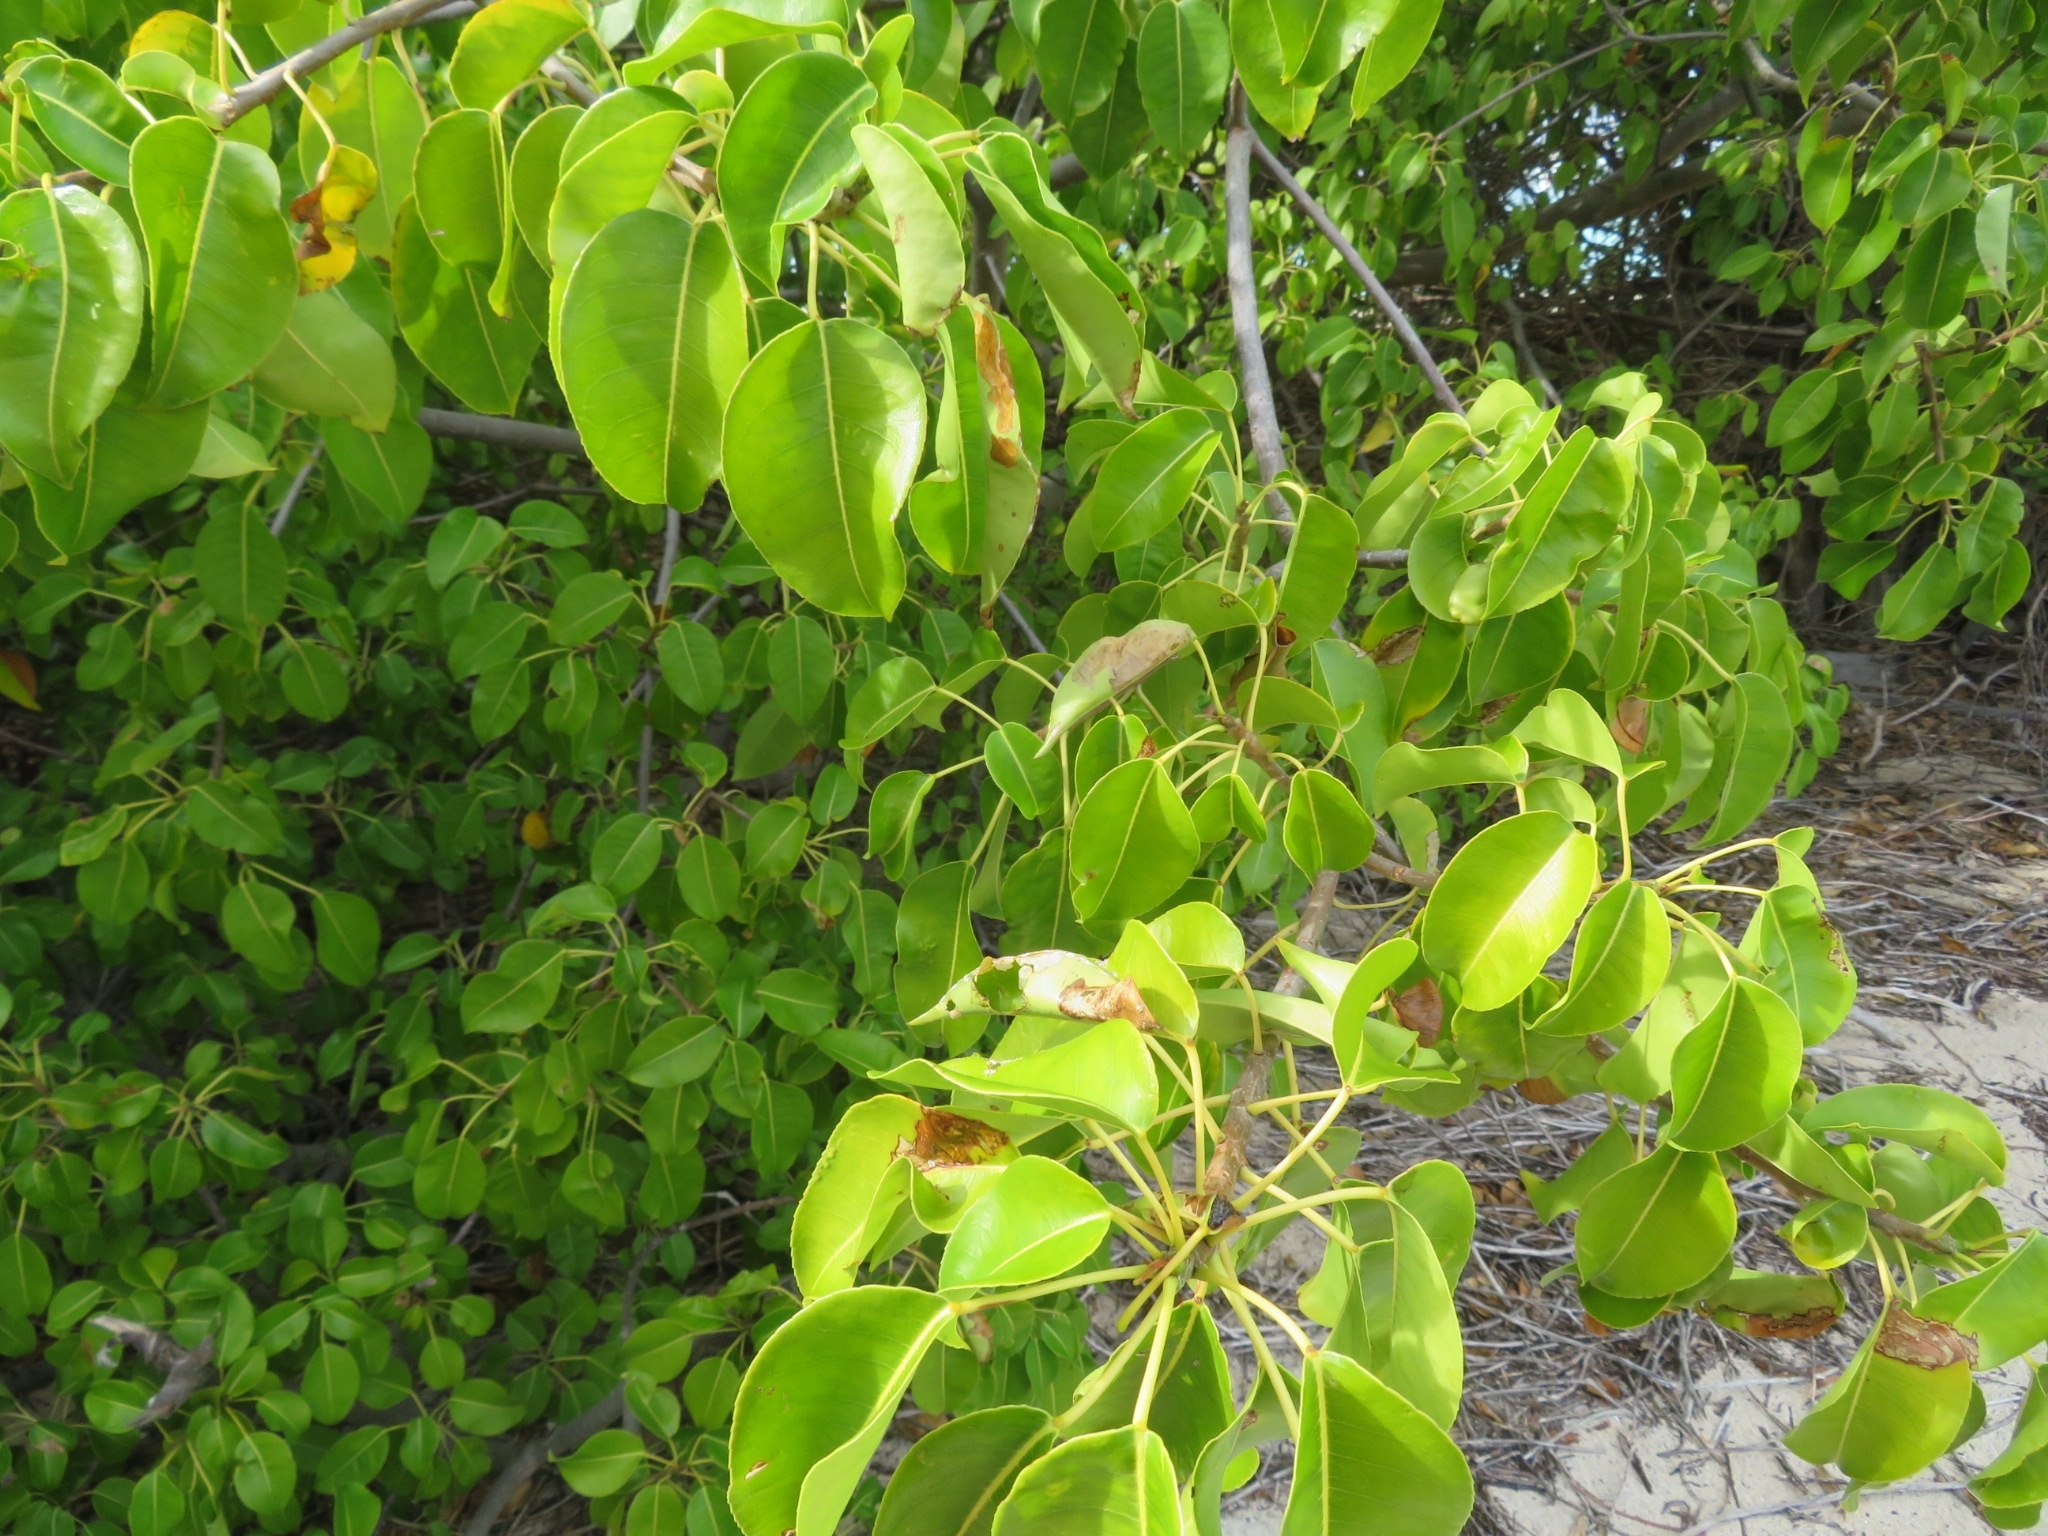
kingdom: Plantae
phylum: Tracheophyta
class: Magnoliopsida
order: Laurales
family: Lauraceae
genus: Cassytha
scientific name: Cassytha filiformis
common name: Dodder-laurel
